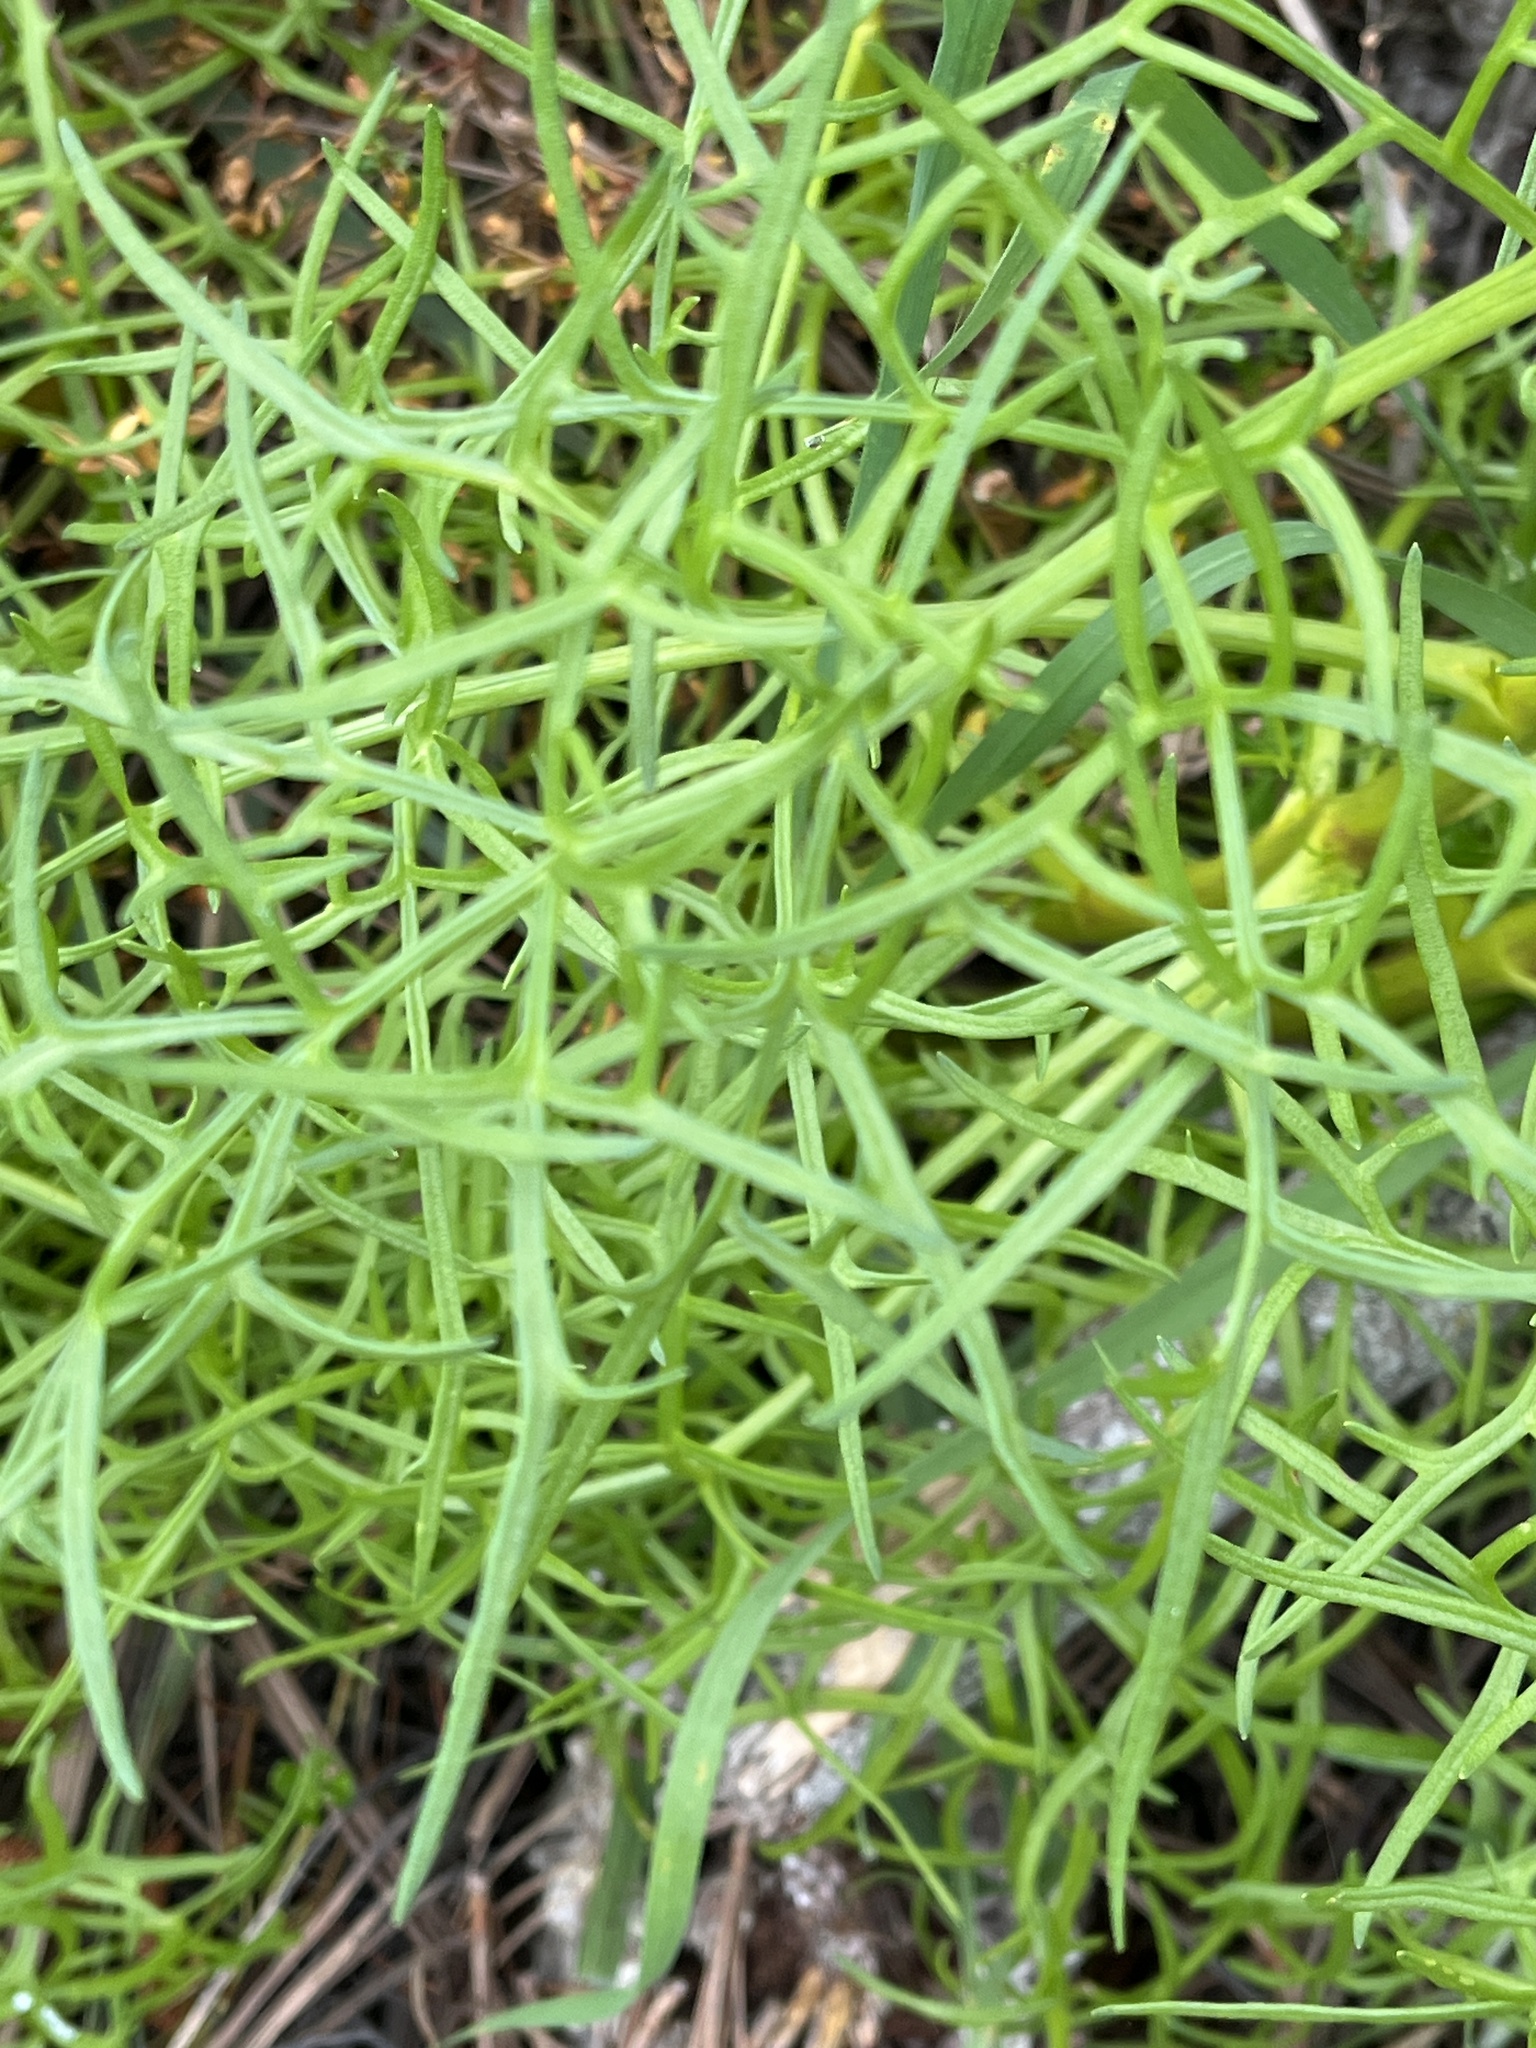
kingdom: Plantae
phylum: Tracheophyta
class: Magnoliopsida
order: Asterales
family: Asteraceae
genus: Coreopsis
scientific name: Coreopsis maritima
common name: Sea-dahlia
